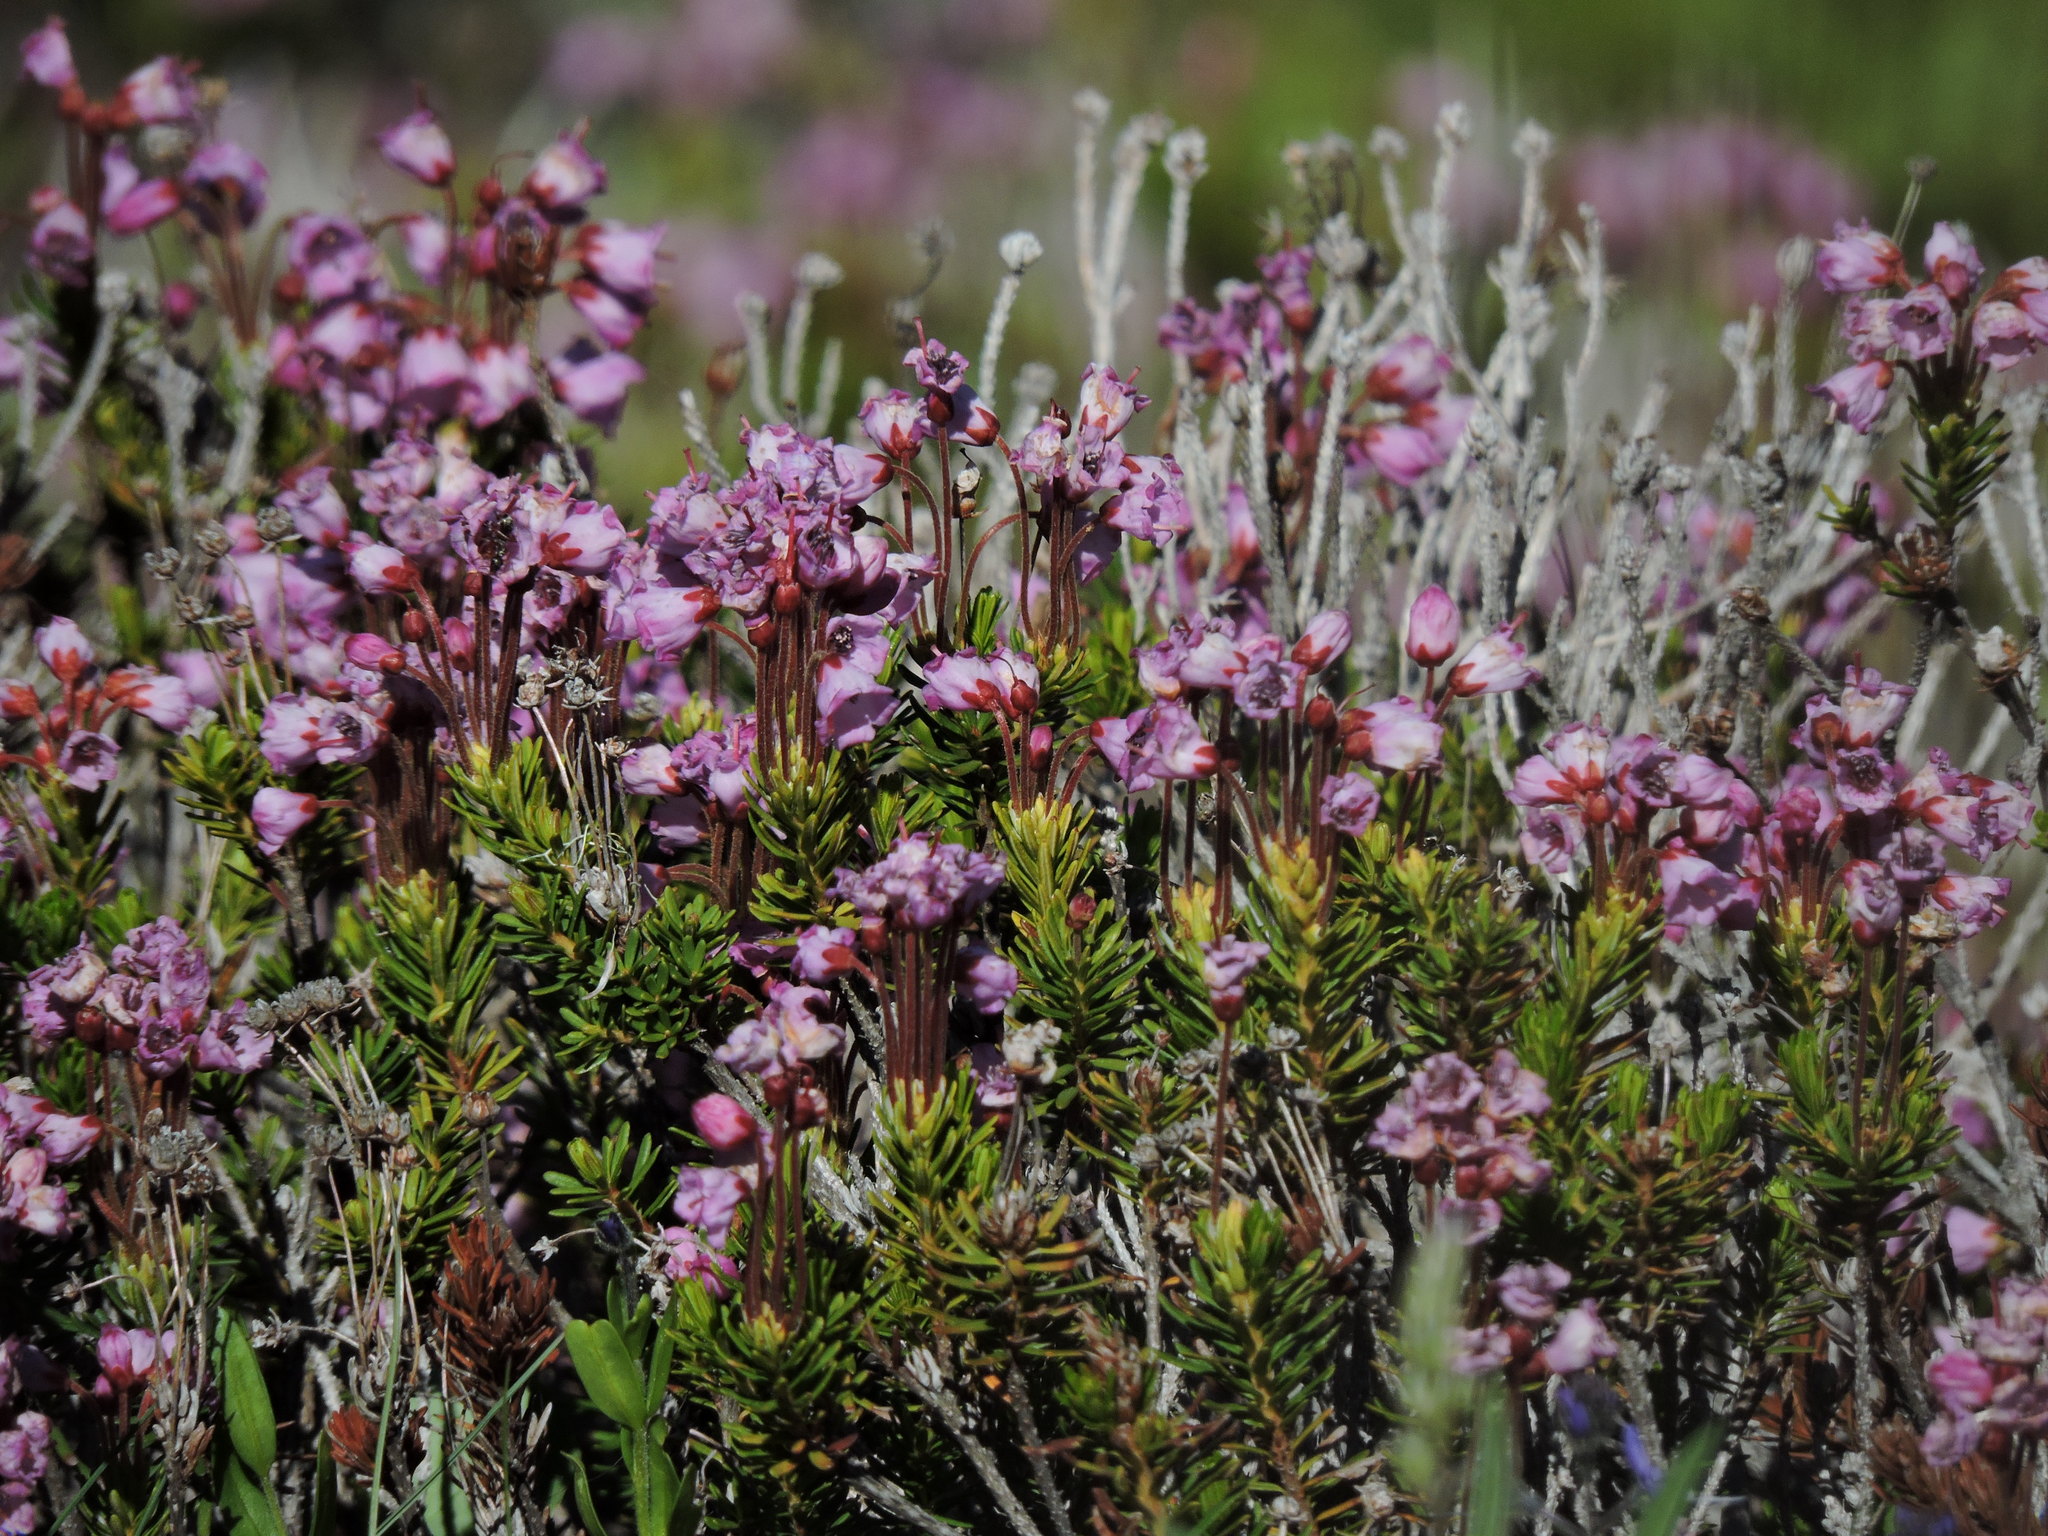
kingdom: Plantae
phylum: Tracheophyta
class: Magnoliopsida
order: Ericales
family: Ericaceae
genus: Phyllodoce
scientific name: Phyllodoce empetriformis
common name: Pink mountain heather
